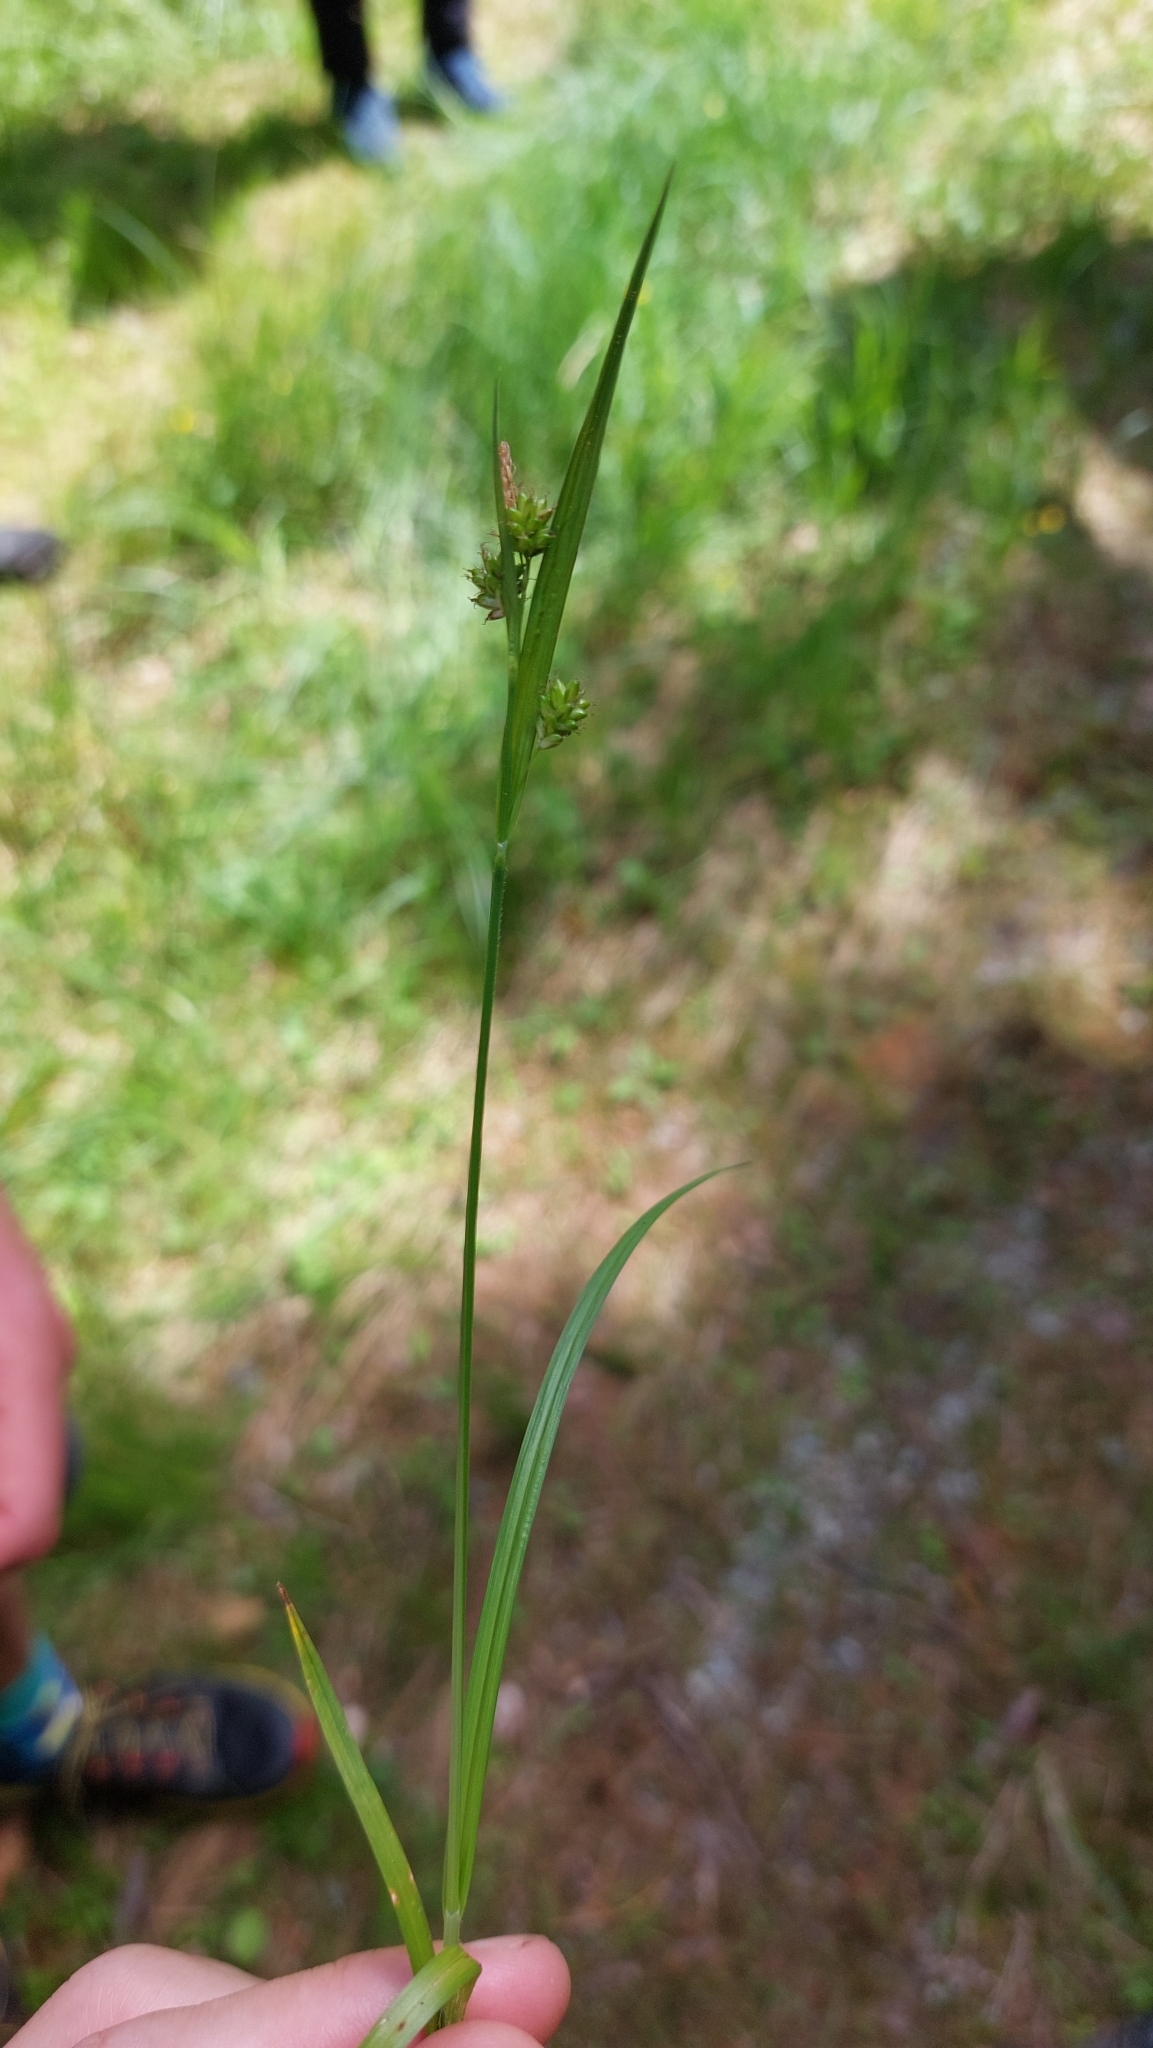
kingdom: Plantae
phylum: Tracheophyta
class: Liliopsida
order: Poales
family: Cyperaceae
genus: Carex
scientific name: Carex pallescens
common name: Pale sedge
